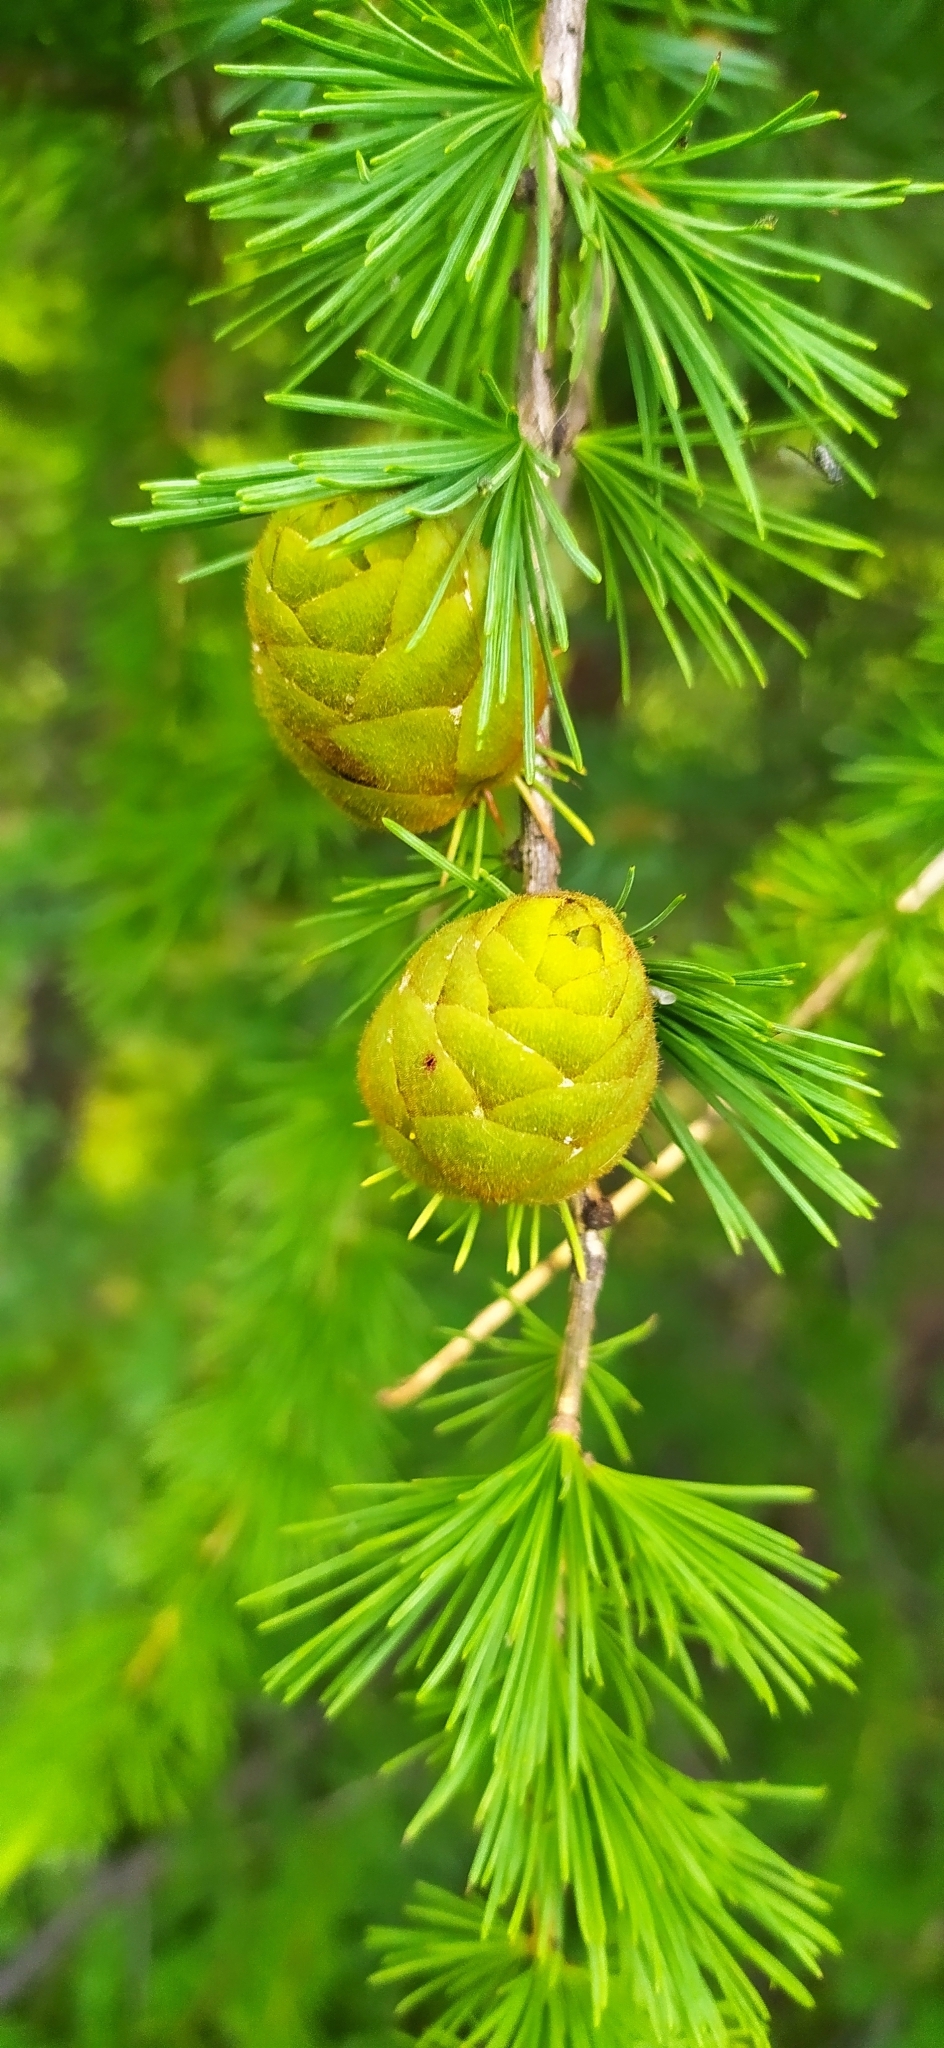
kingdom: Plantae
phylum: Tracheophyta
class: Pinopsida
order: Pinales
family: Pinaceae
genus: Larix
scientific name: Larix sibirica
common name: Siberian larch
